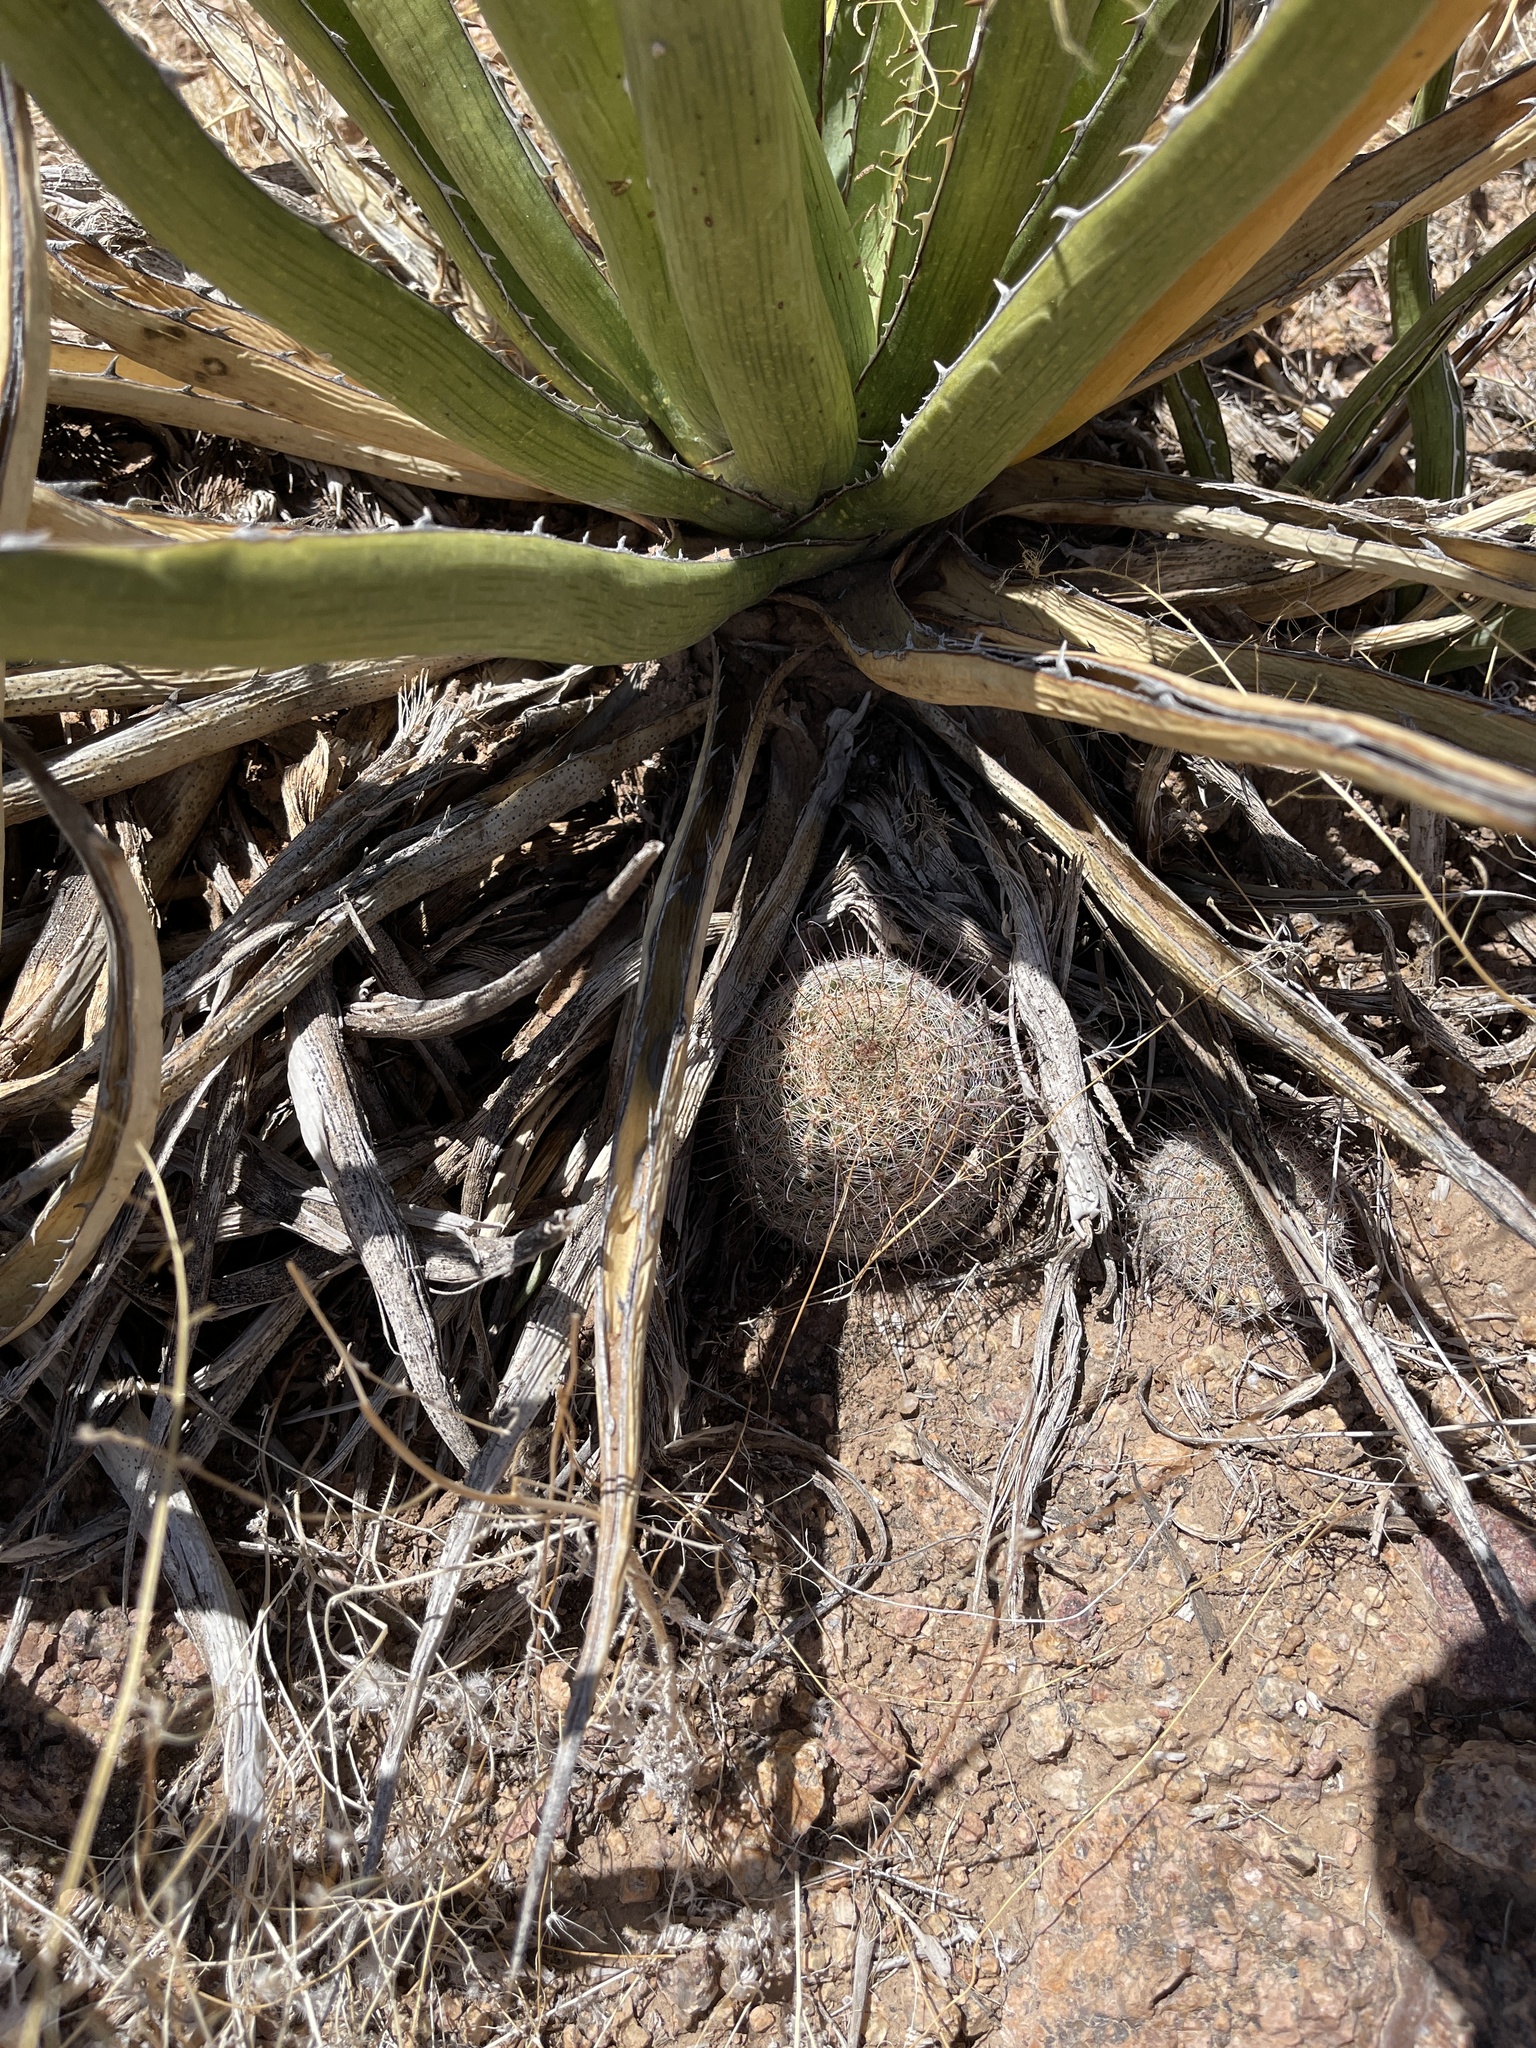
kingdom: Plantae
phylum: Tracheophyta
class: Magnoliopsida
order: Caryophyllales
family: Cactaceae
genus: Cochemiea
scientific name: Cochemiea grahamii
